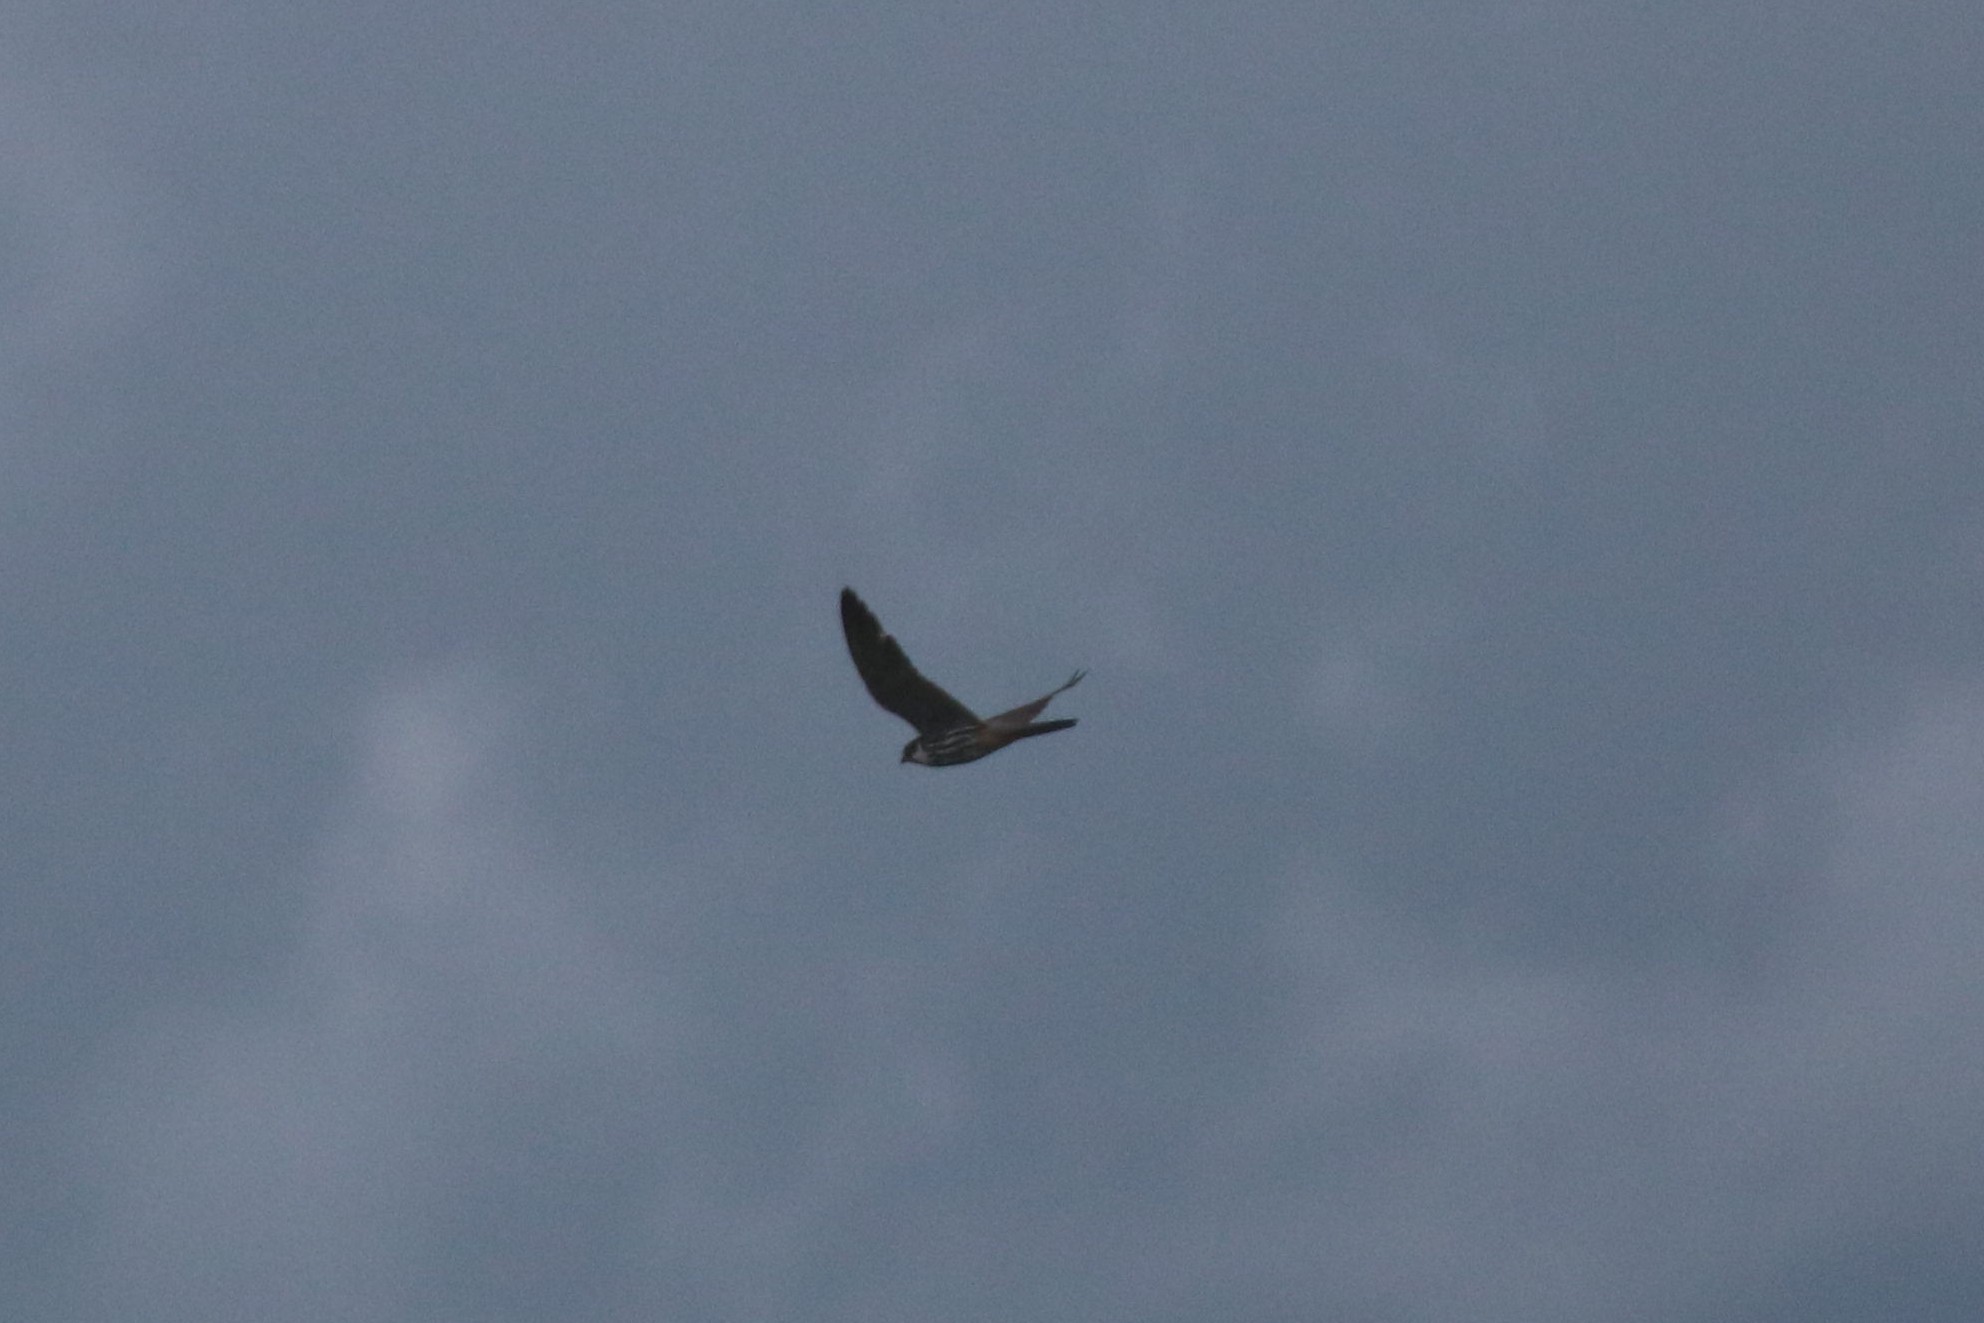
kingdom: Animalia
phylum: Chordata
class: Aves
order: Falconiformes
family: Falconidae
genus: Falco
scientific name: Falco subbuteo
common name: Eurasian hobby
